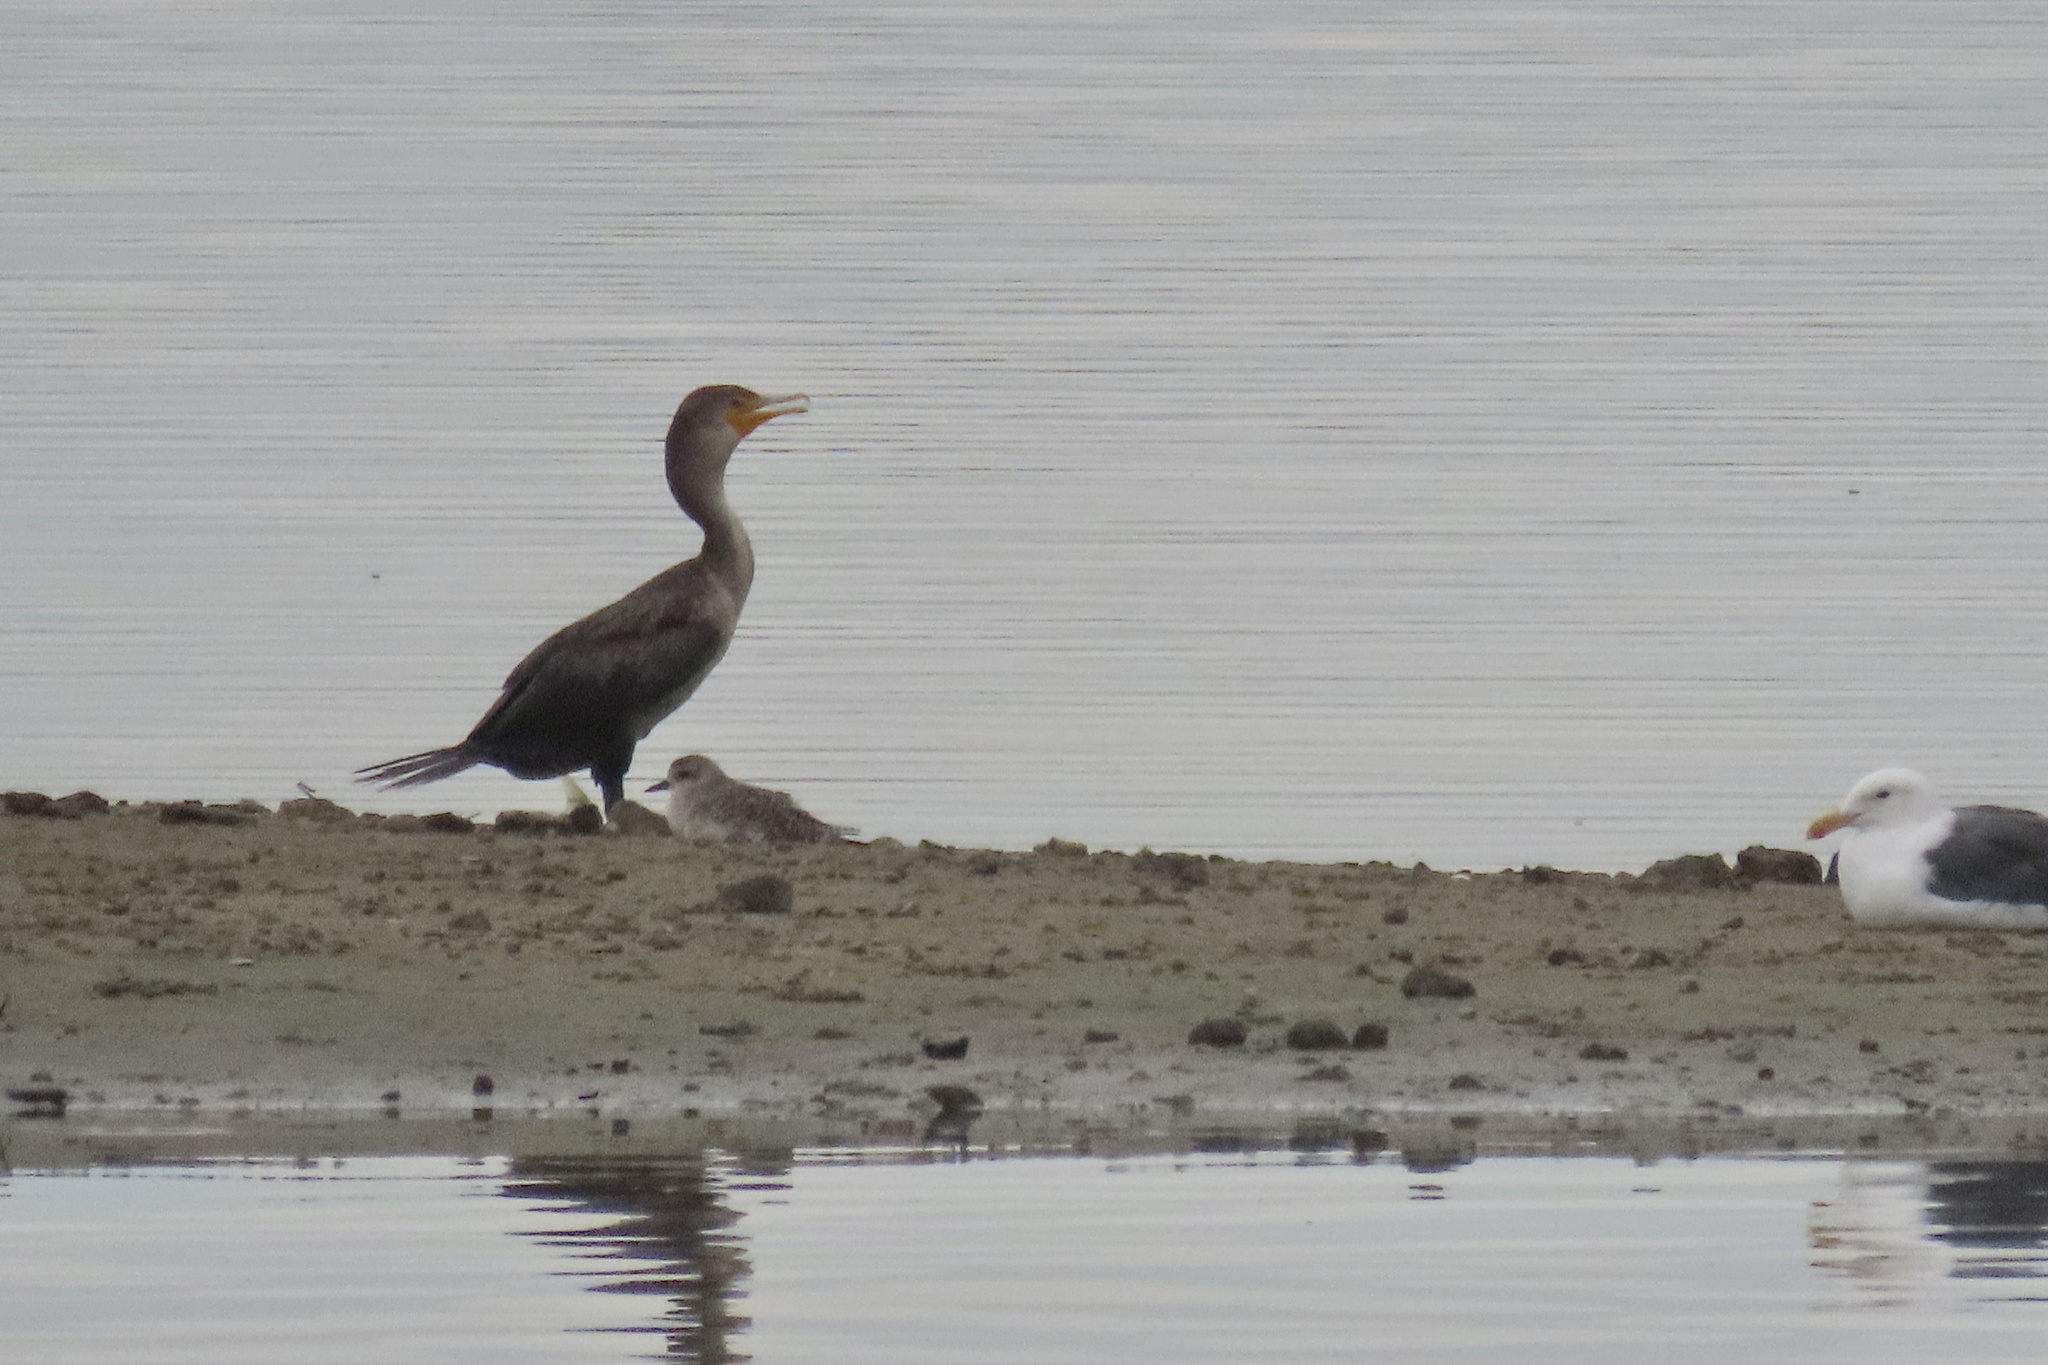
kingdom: Animalia
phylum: Chordata
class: Aves
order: Suliformes
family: Phalacrocoracidae
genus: Phalacrocorax
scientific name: Phalacrocorax auritus
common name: Double-crested cormorant
